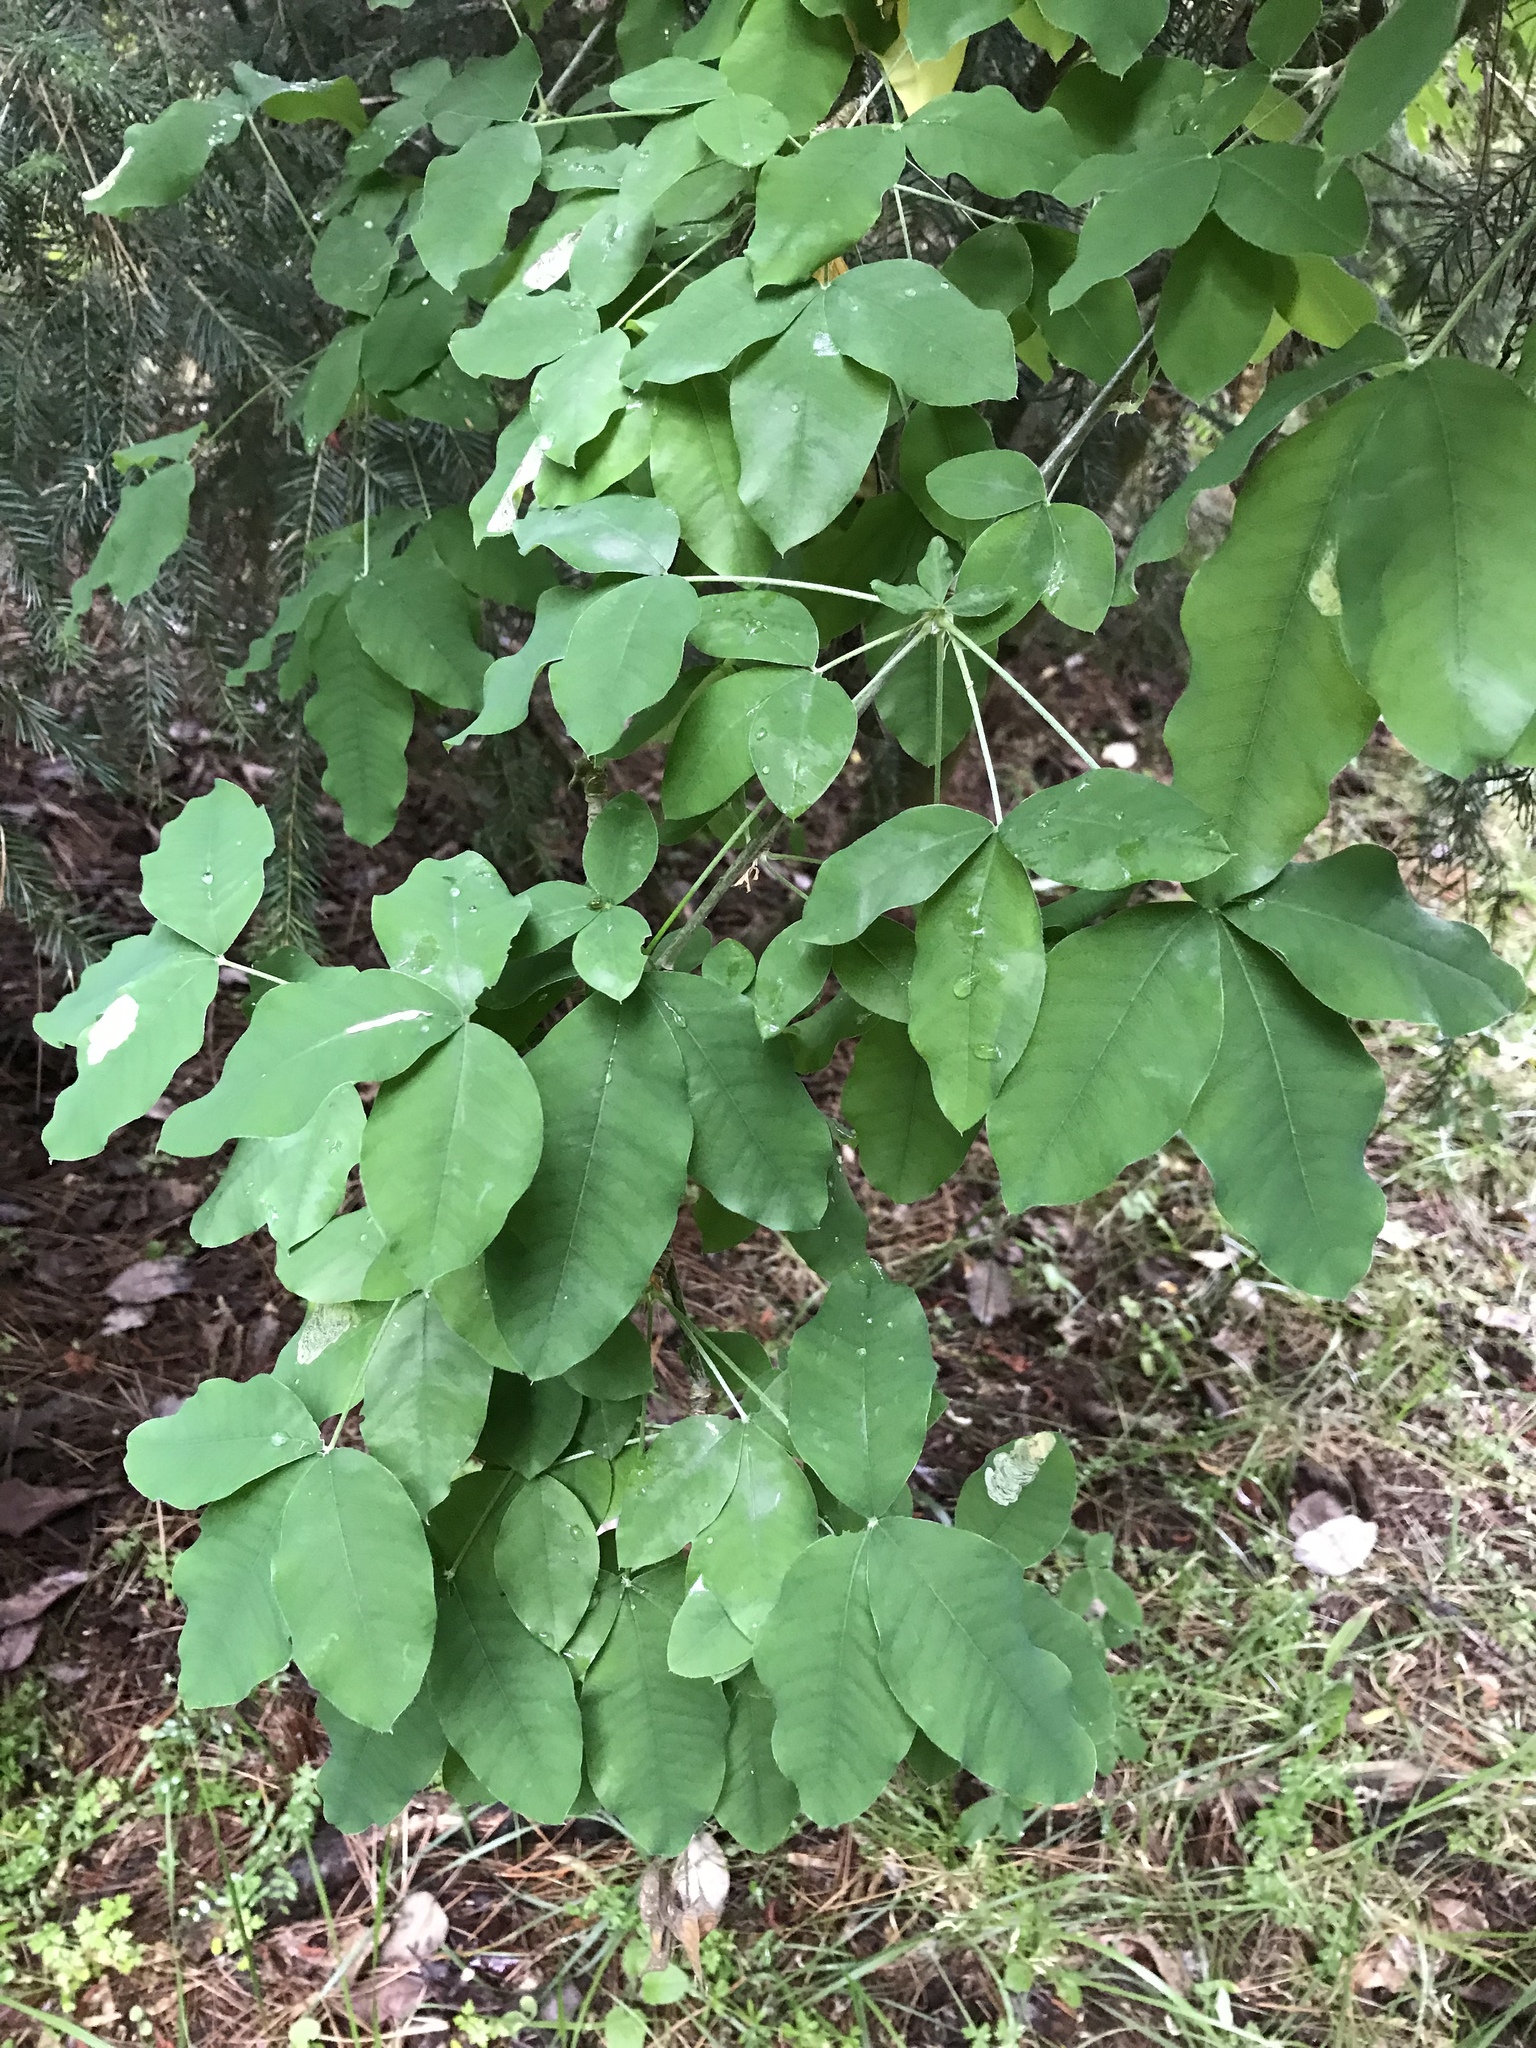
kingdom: Plantae
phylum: Tracheophyta
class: Magnoliopsida
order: Fabales
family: Fabaceae
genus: Laburnum
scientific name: Laburnum anagyroides
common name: Laburnum
